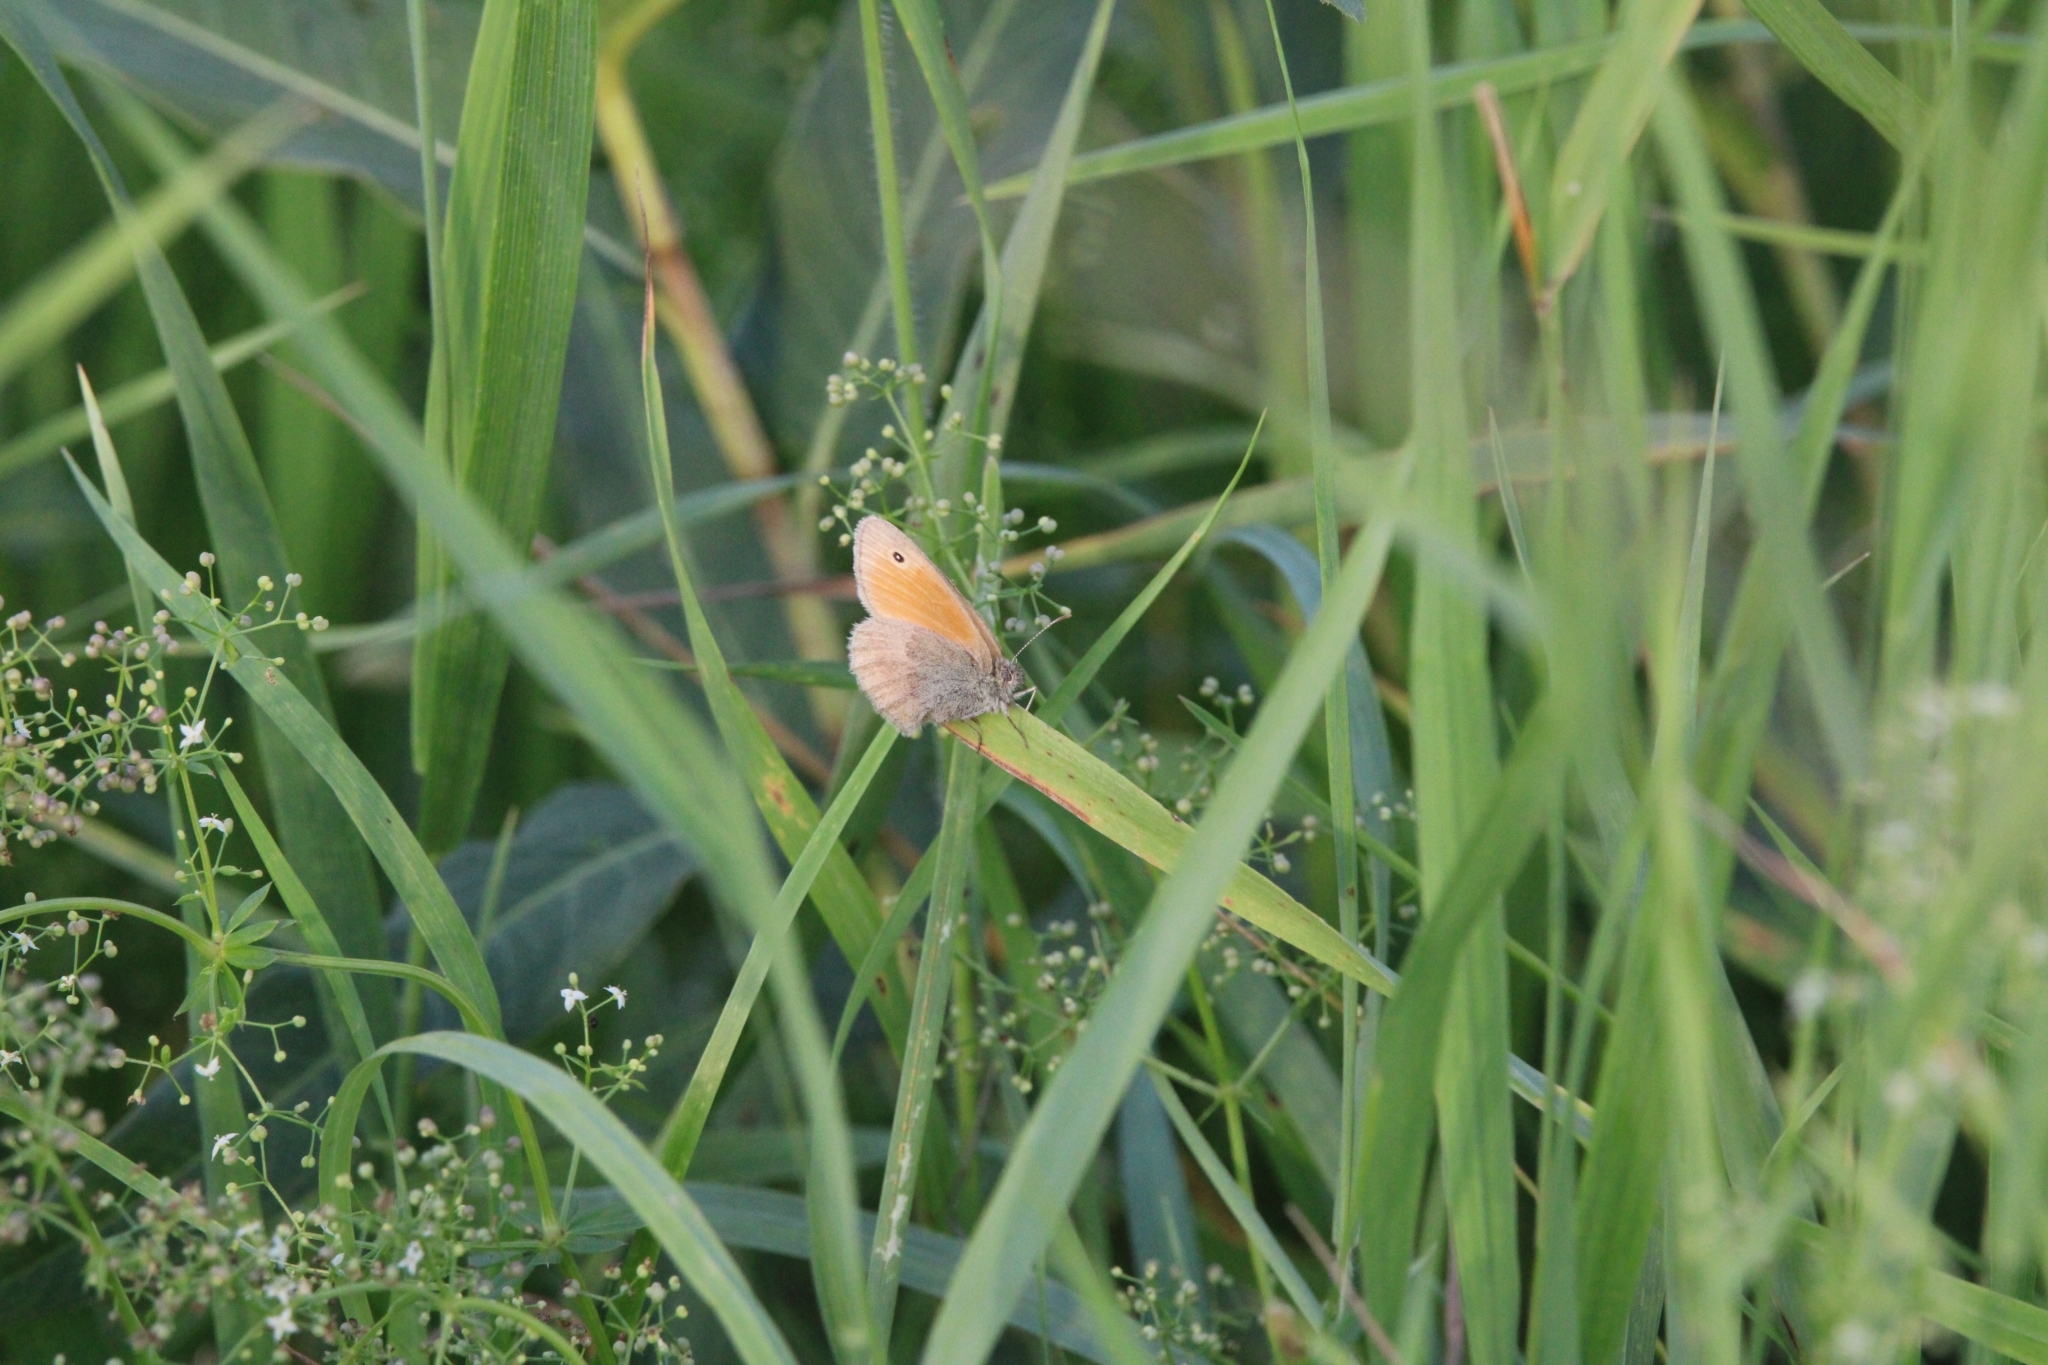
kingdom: Animalia
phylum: Arthropoda
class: Insecta
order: Lepidoptera
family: Nymphalidae
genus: Coenonympha
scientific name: Coenonympha pamphilus
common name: Small heath
